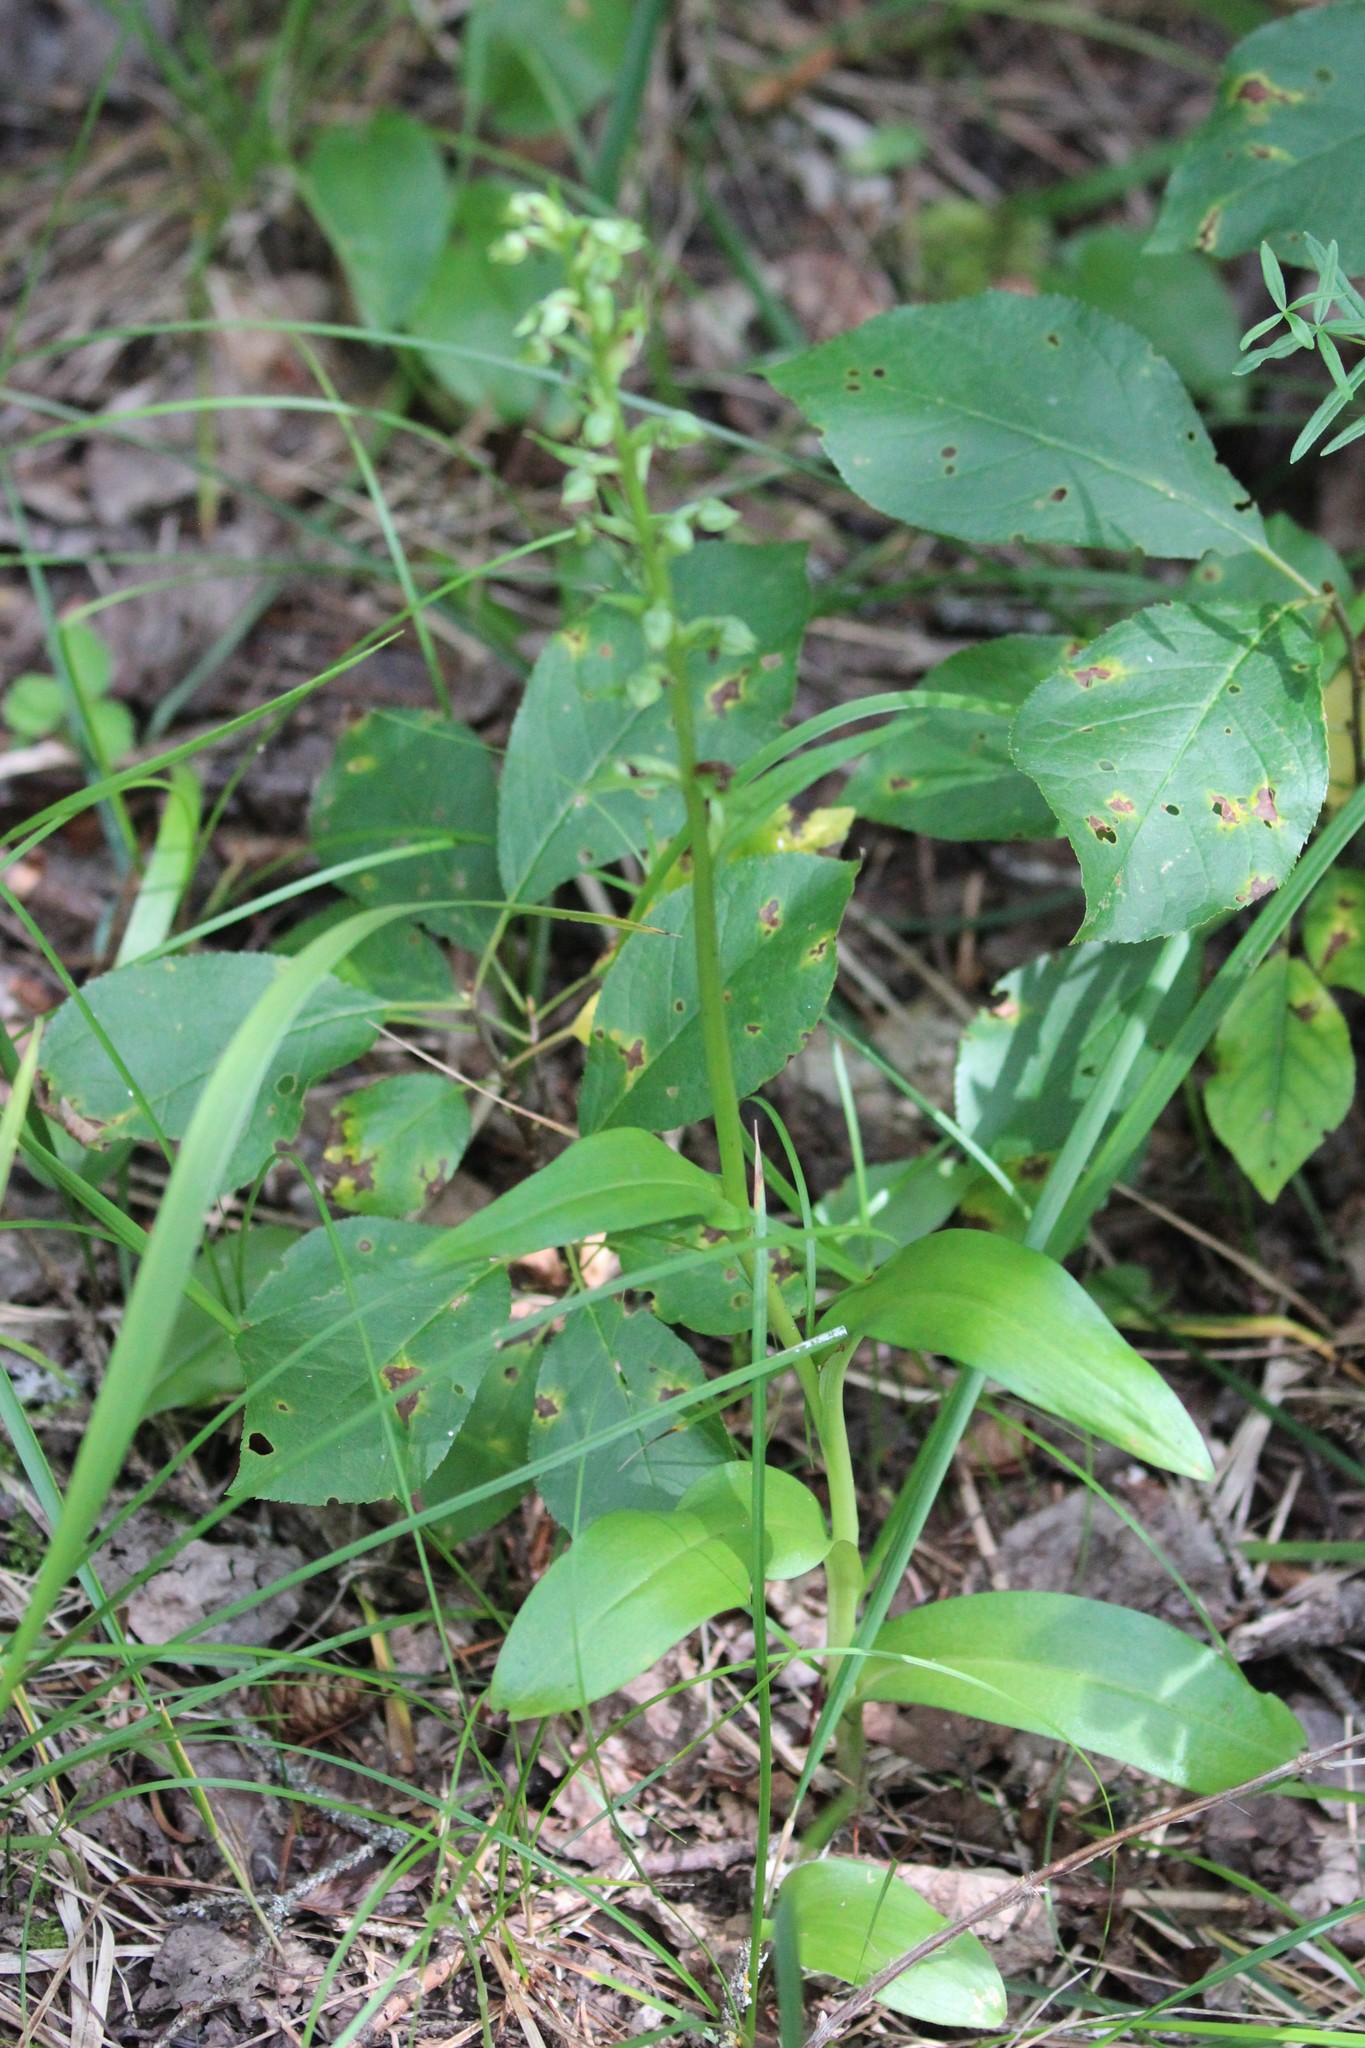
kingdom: Plantae
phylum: Tracheophyta
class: Liliopsida
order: Asparagales
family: Orchidaceae
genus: Dactylorhiza
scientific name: Dactylorhiza viridis
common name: Longbract frog orchid
